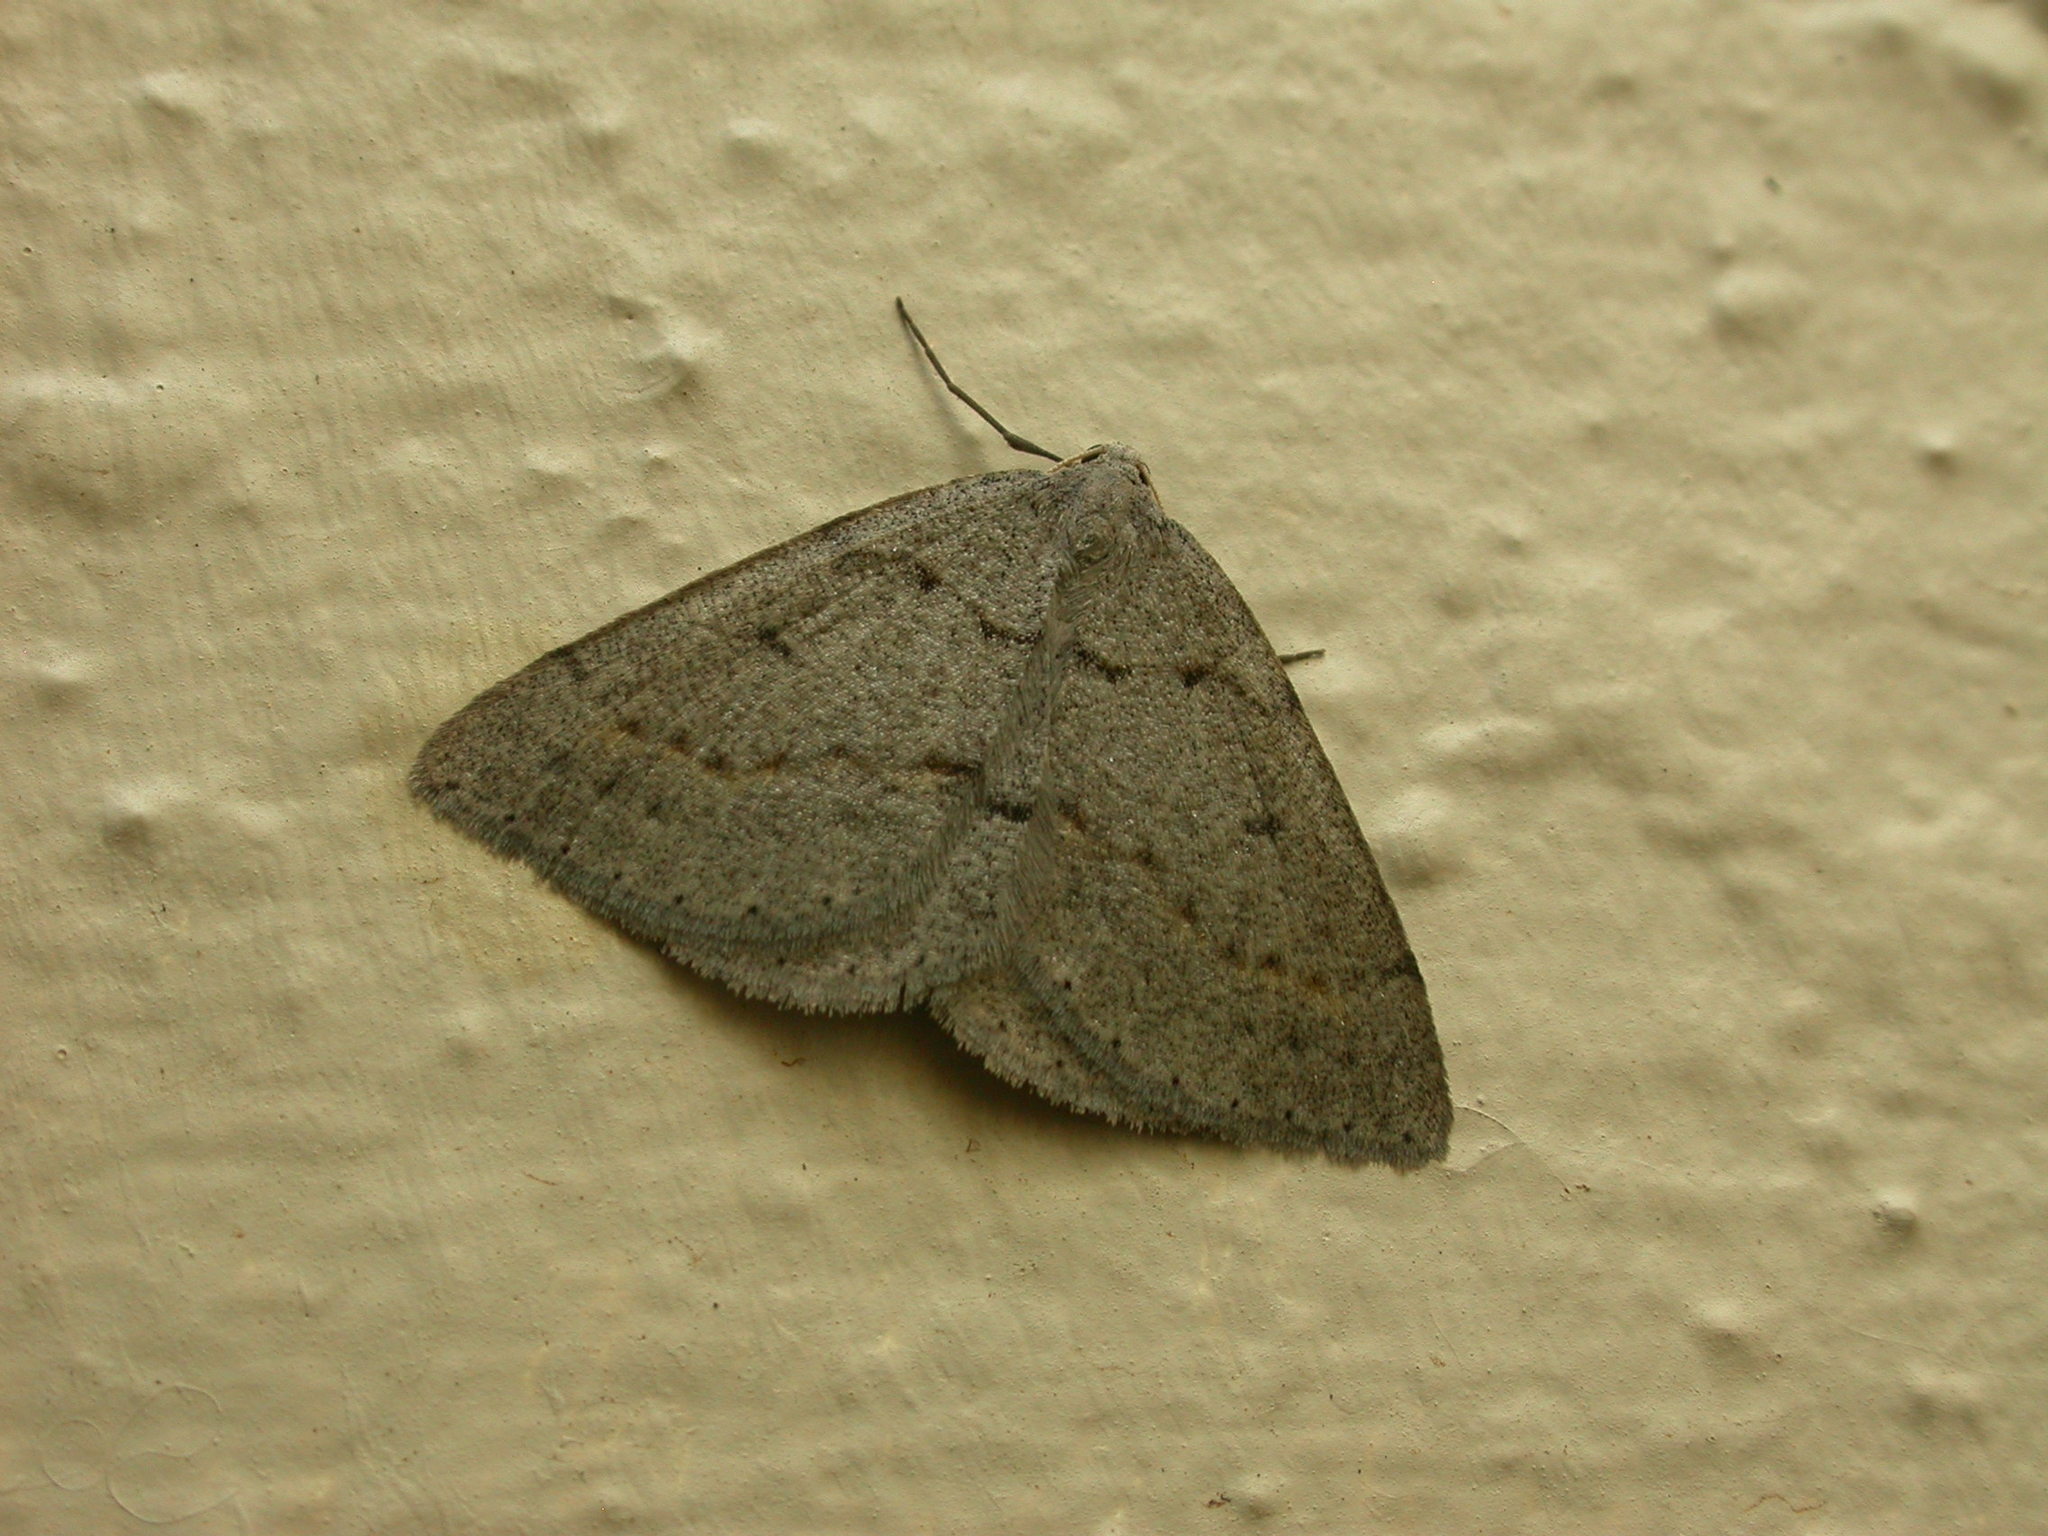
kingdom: Animalia
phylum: Arthropoda
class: Insecta
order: Lepidoptera
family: Geometridae
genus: Taxeotis
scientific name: Taxeotis reserata
